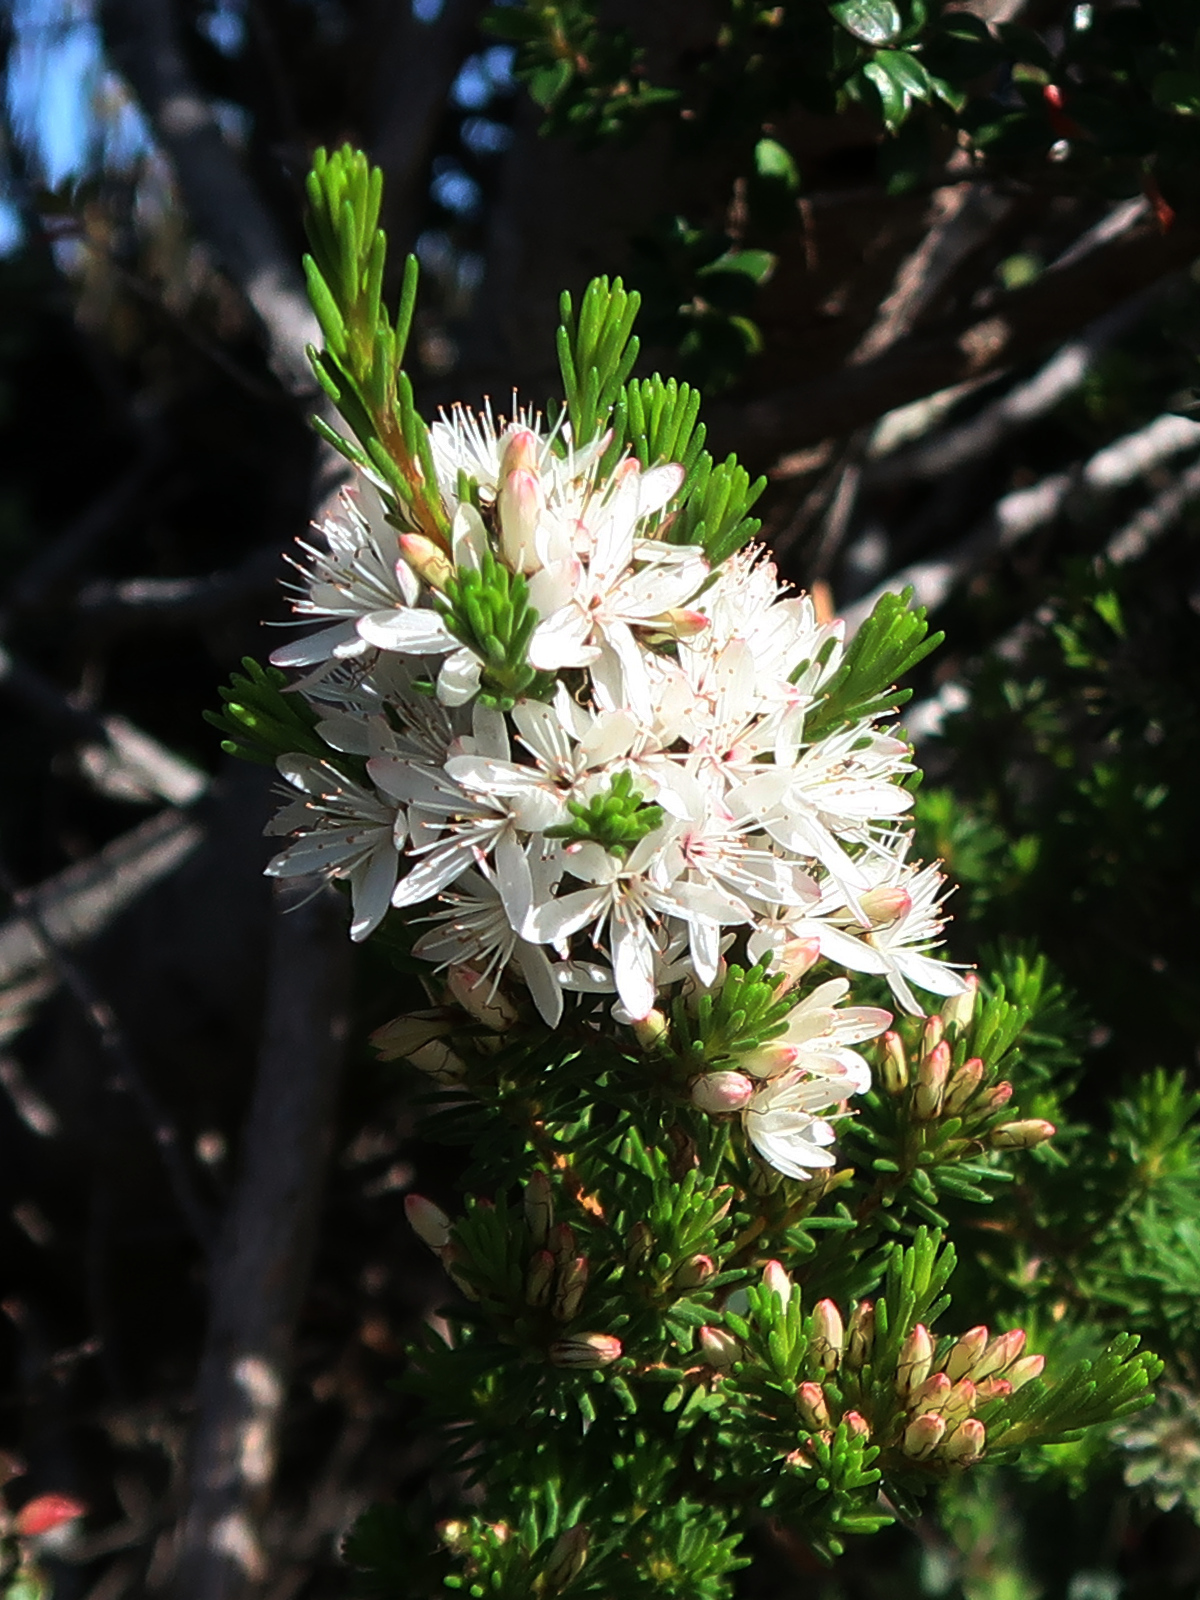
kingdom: Plantae
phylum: Tracheophyta
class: Magnoliopsida
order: Myrtales
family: Myrtaceae
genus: Calytrix
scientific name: Calytrix tetragona
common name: Common fringe myrtle
